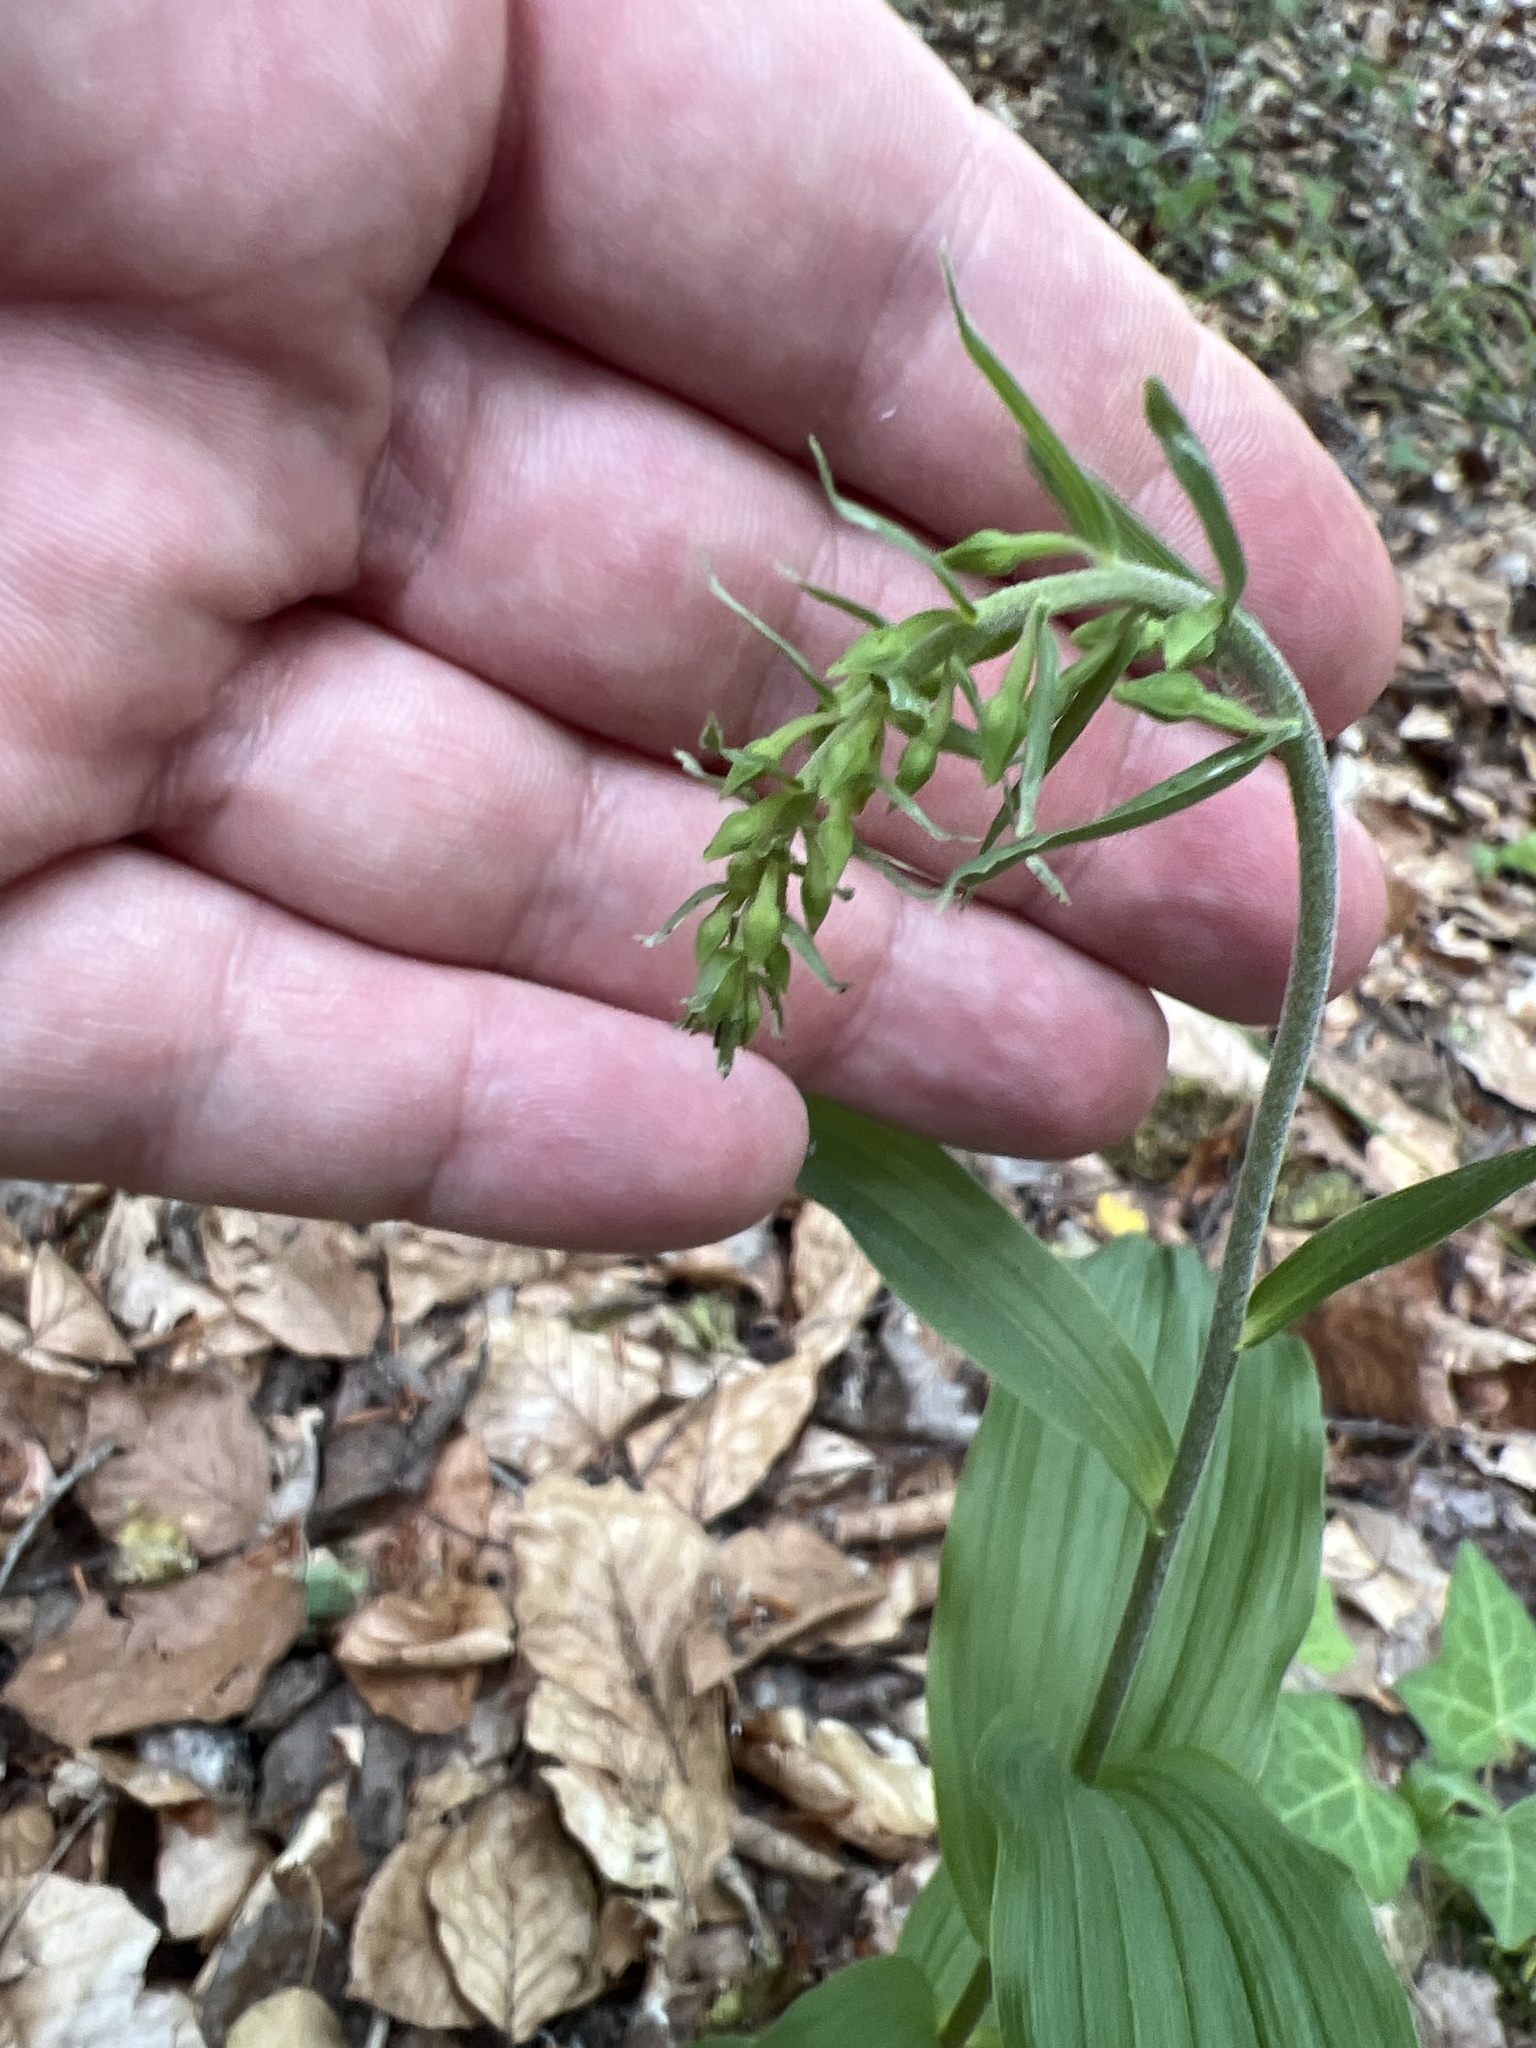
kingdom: Plantae
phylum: Tracheophyta
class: Liliopsida
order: Asparagales
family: Orchidaceae
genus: Epipactis
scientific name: Epipactis helleborine
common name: Broad-leaved helleborine
